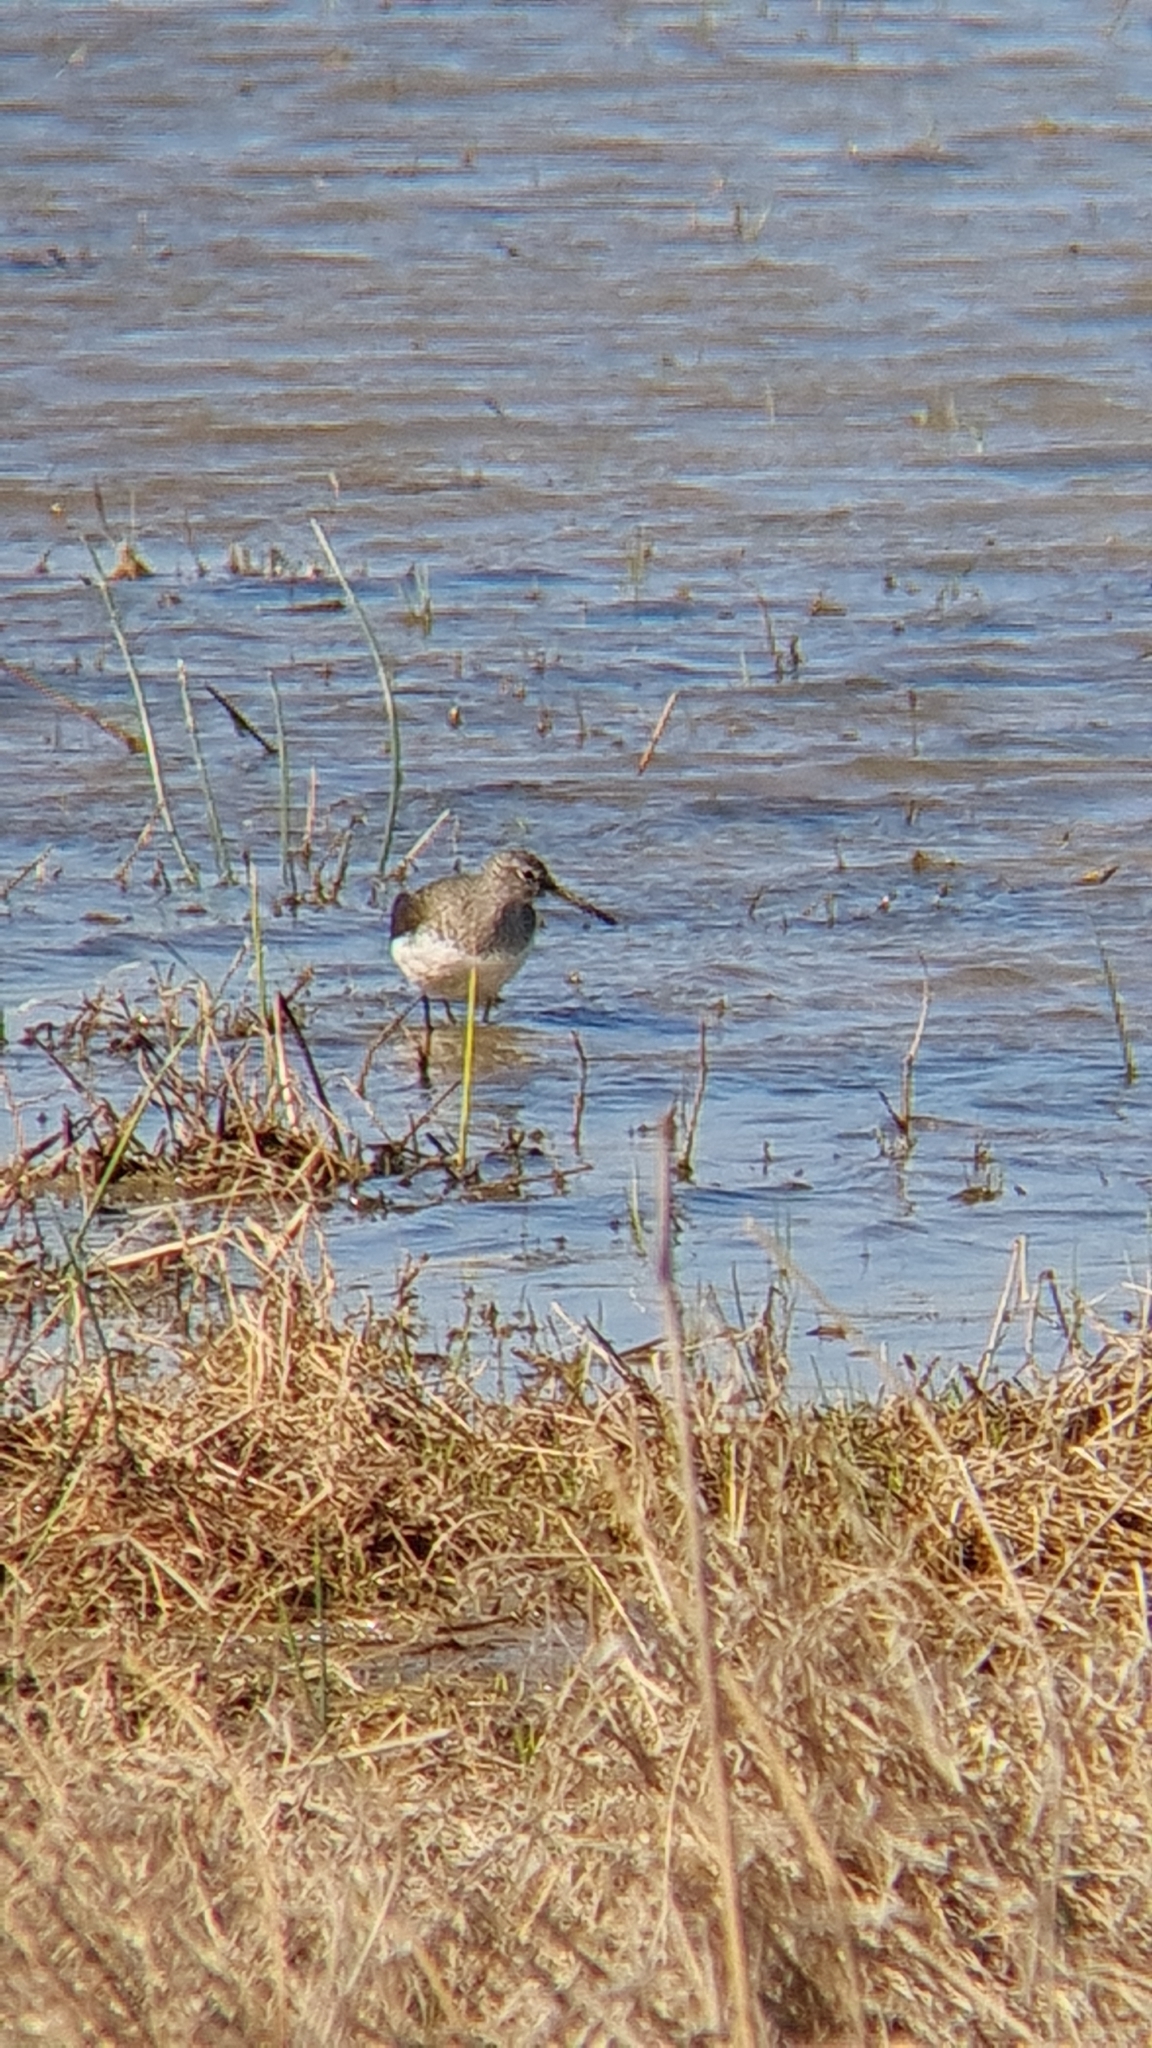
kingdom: Animalia
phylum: Chordata
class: Aves
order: Charadriiformes
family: Scolopacidae
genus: Tringa
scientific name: Tringa ochropus
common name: Green sandpiper
